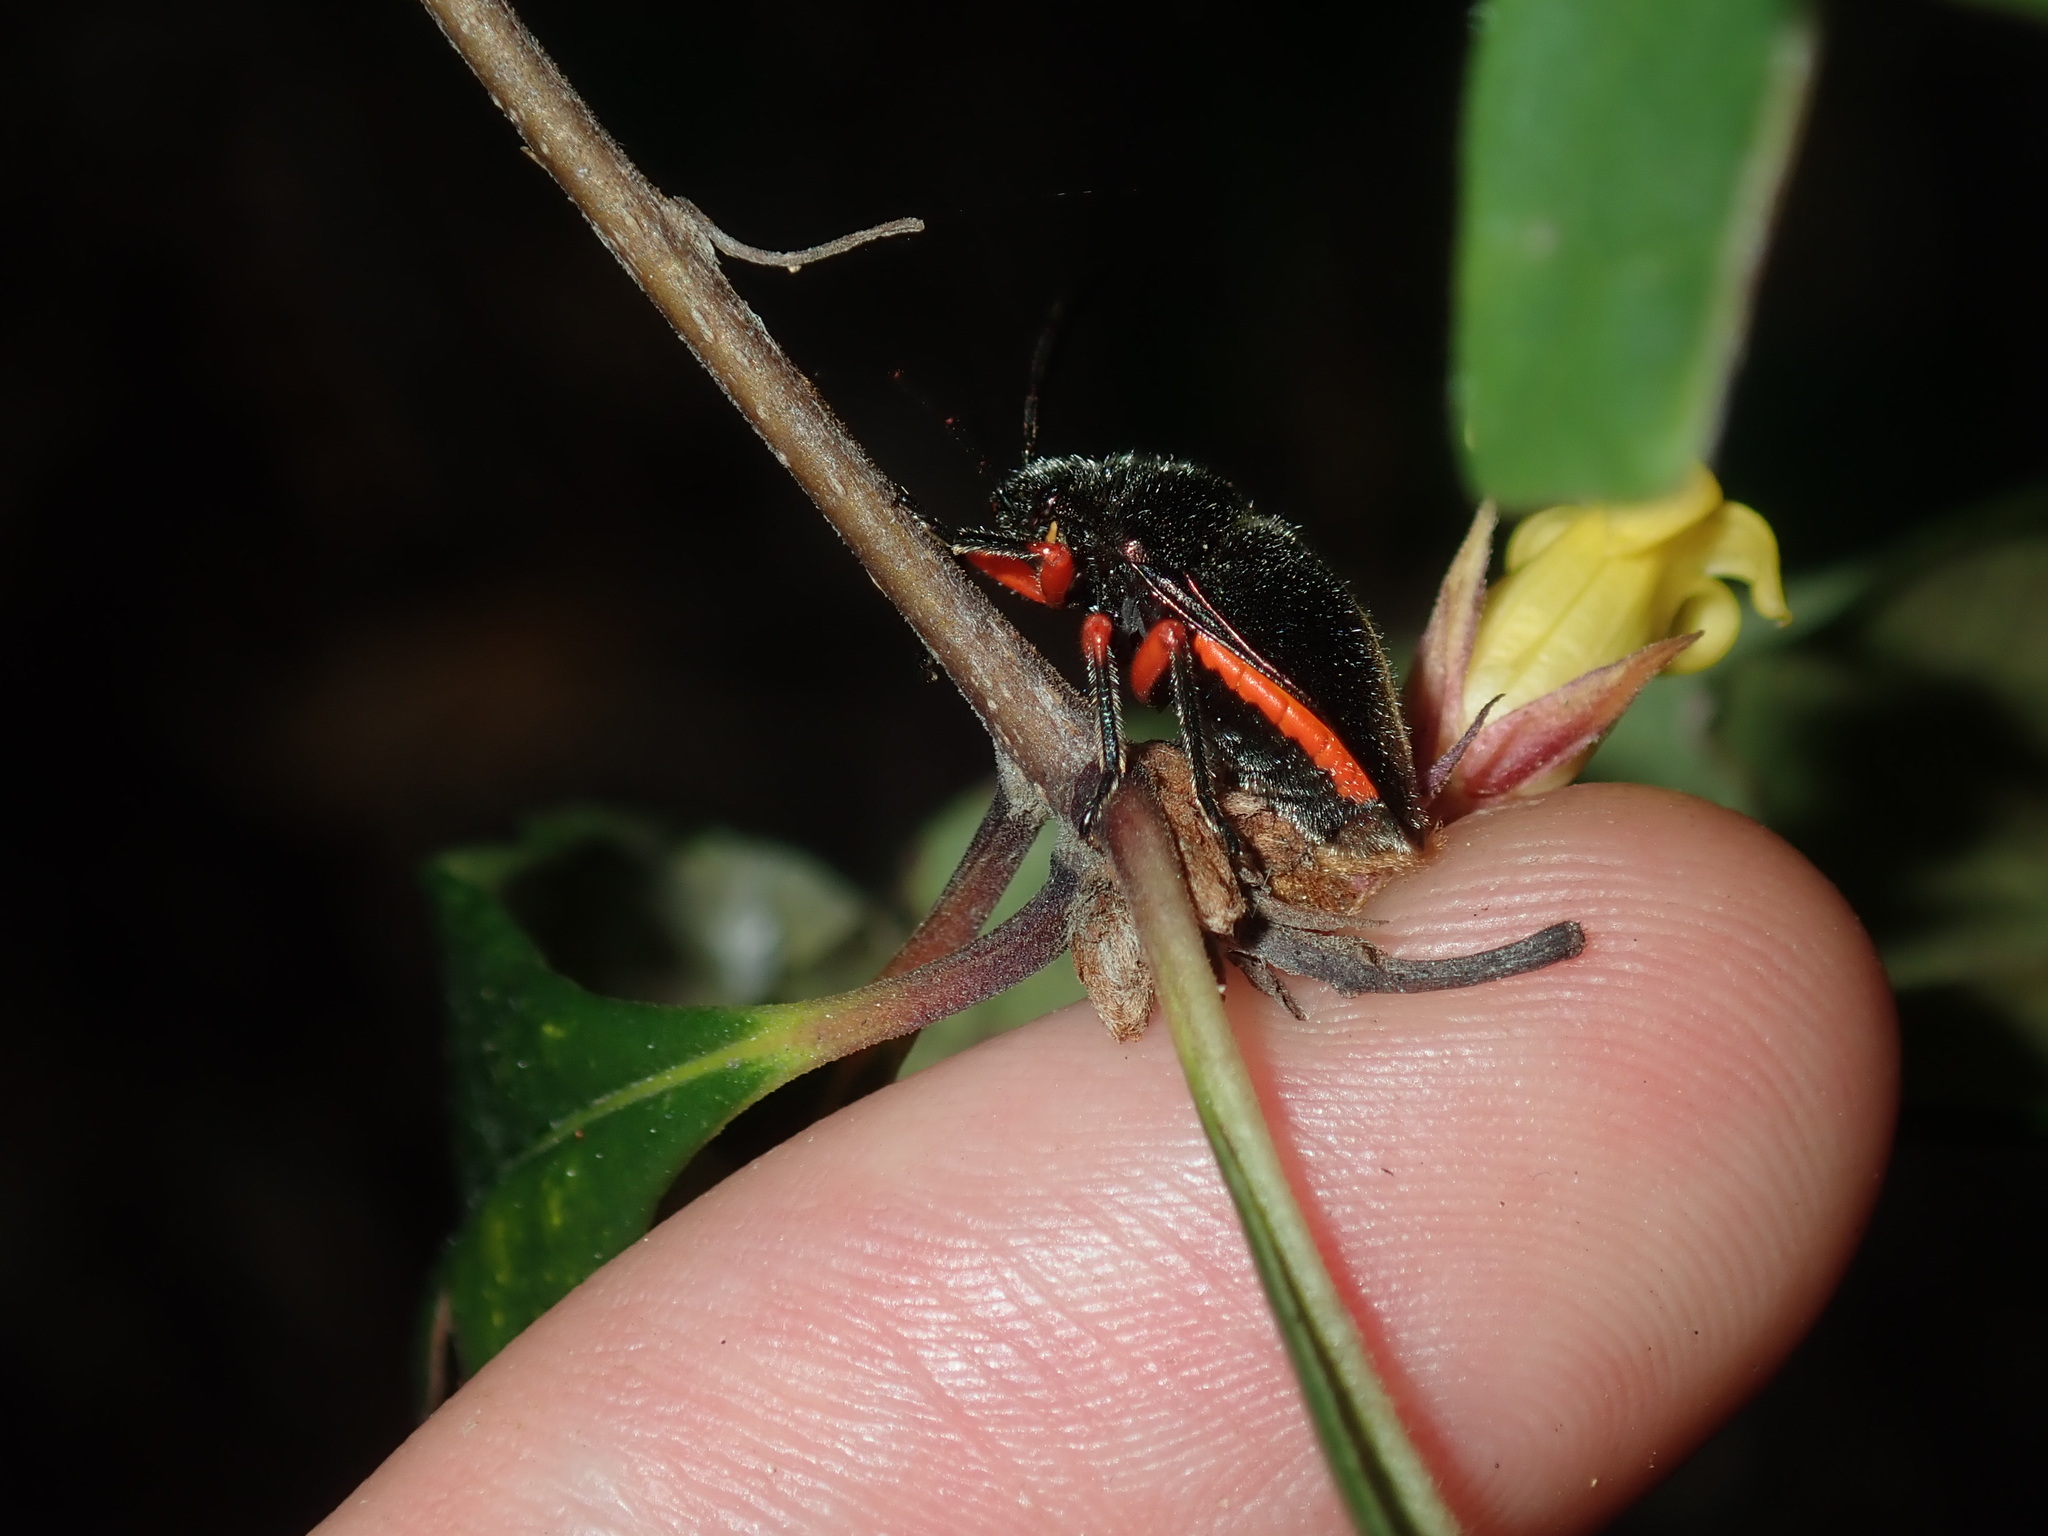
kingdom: Animalia
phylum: Arthropoda
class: Insecta
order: Hemiptera
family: Scutelleridae
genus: Lampromicra
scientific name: Lampromicra
